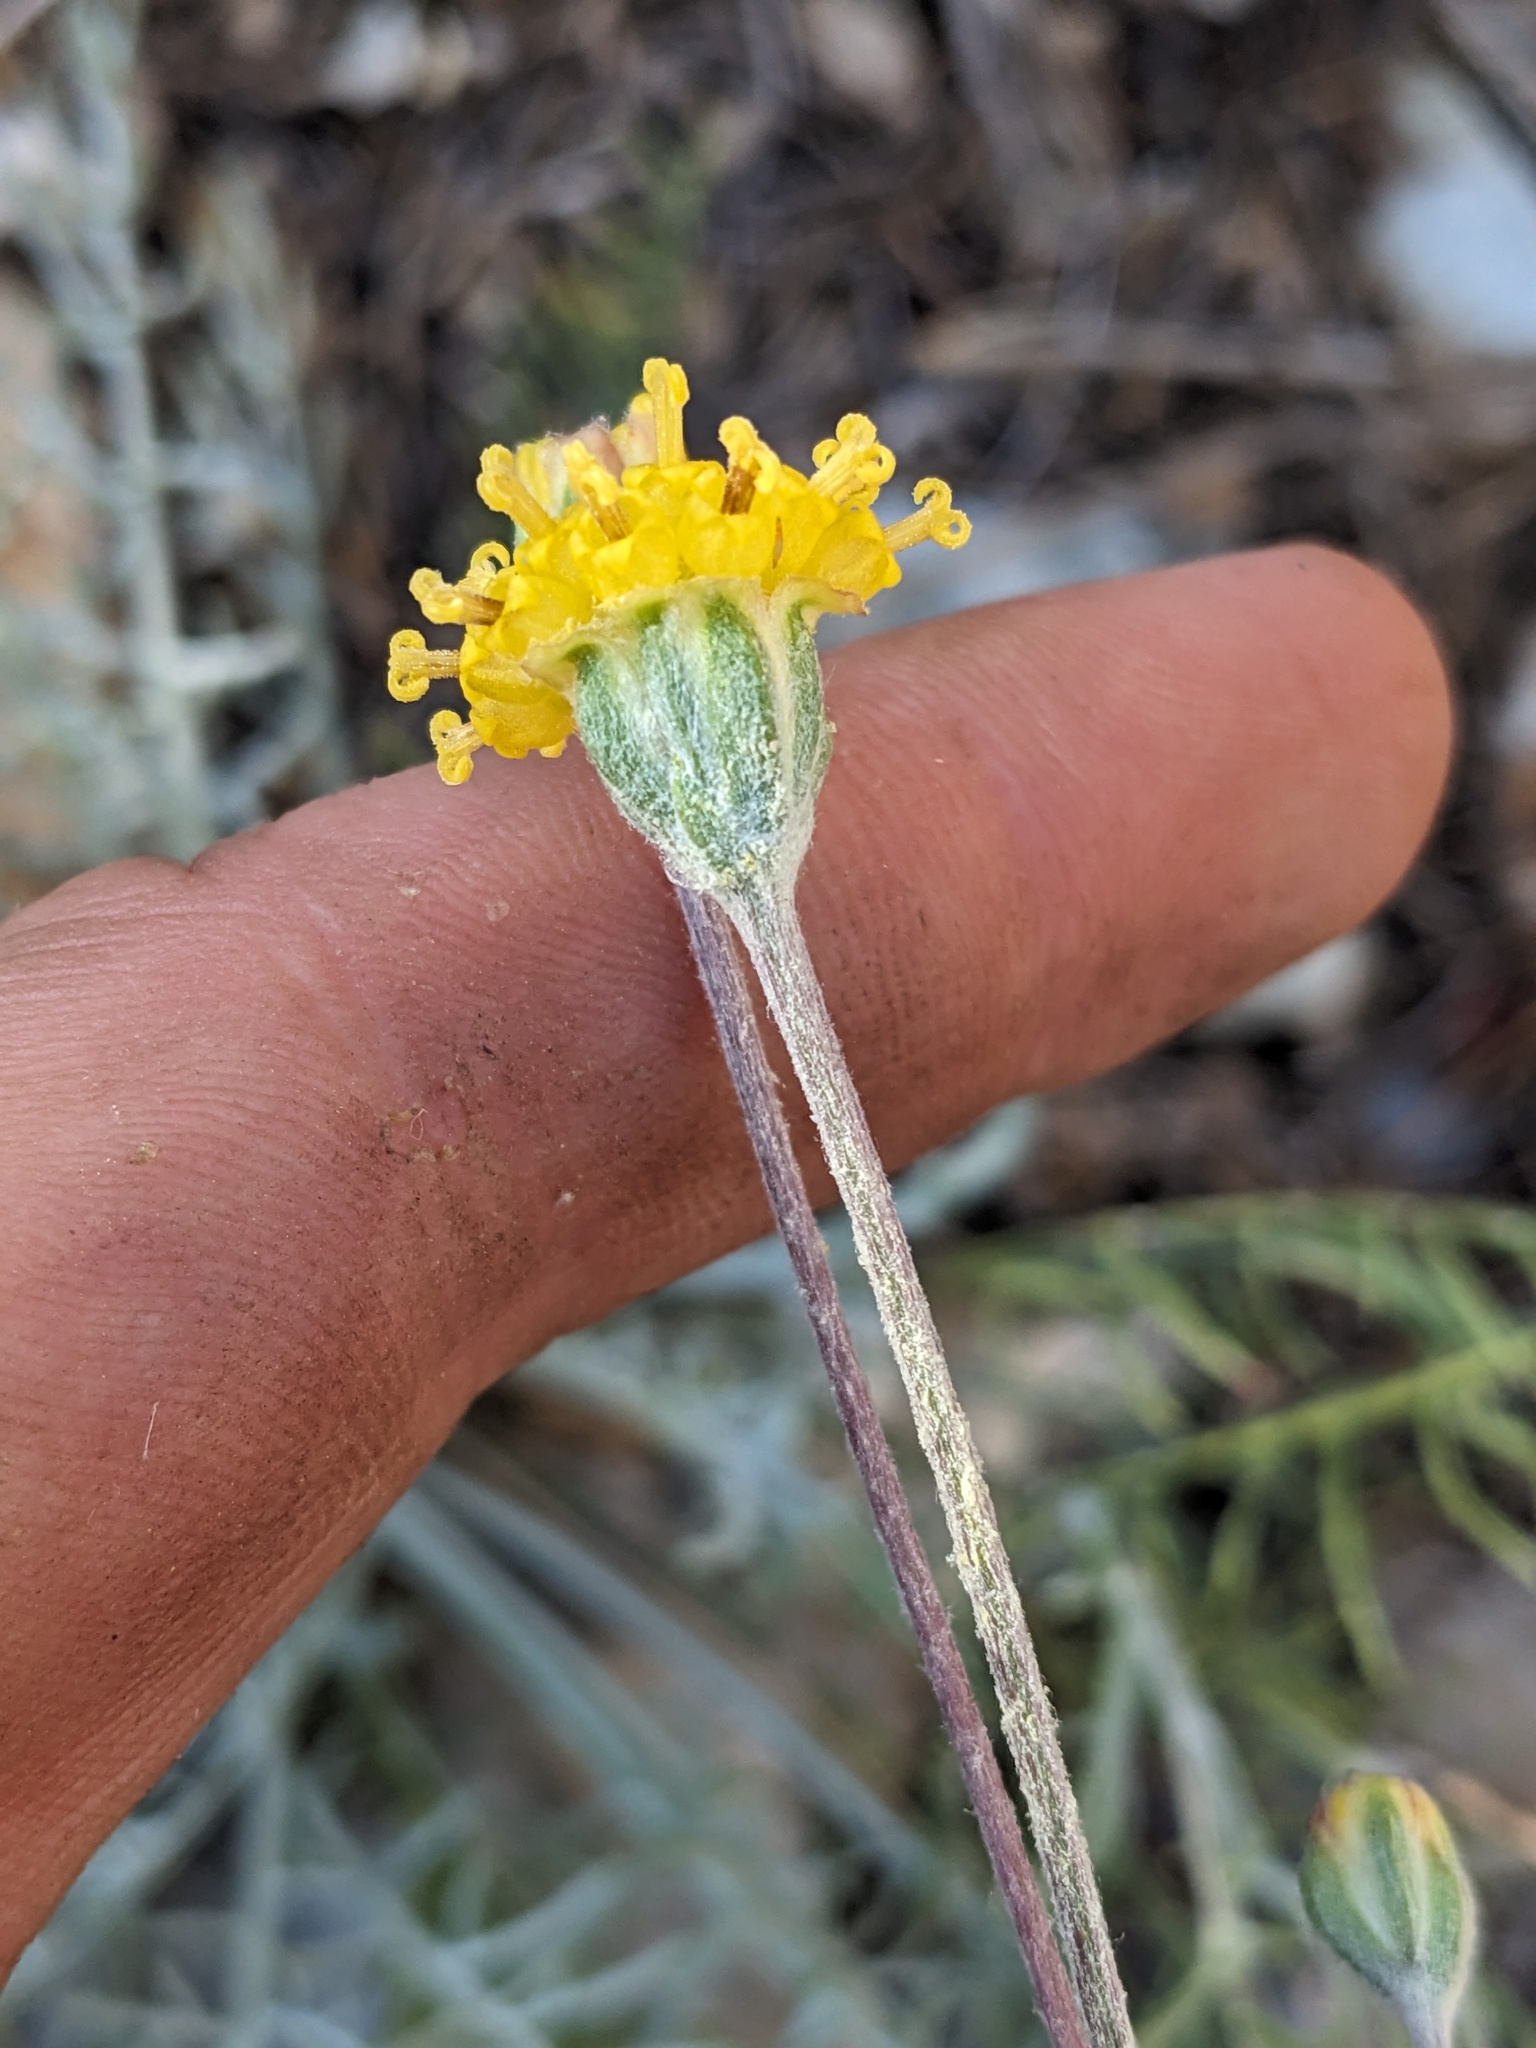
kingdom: Plantae
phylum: Tracheophyta
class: Magnoliopsida
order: Asterales
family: Asteraceae
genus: Hymenopappus
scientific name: Hymenopappus filifolius
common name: Columbia cutleaf
